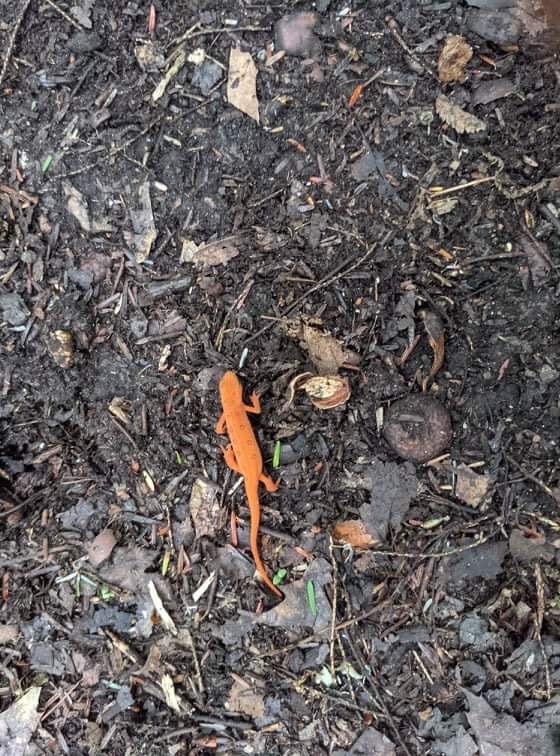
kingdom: Animalia
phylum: Chordata
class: Amphibia
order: Caudata
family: Salamandridae
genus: Notophthalmus
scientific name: Notophthalmus viridescens
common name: Eastern newt
